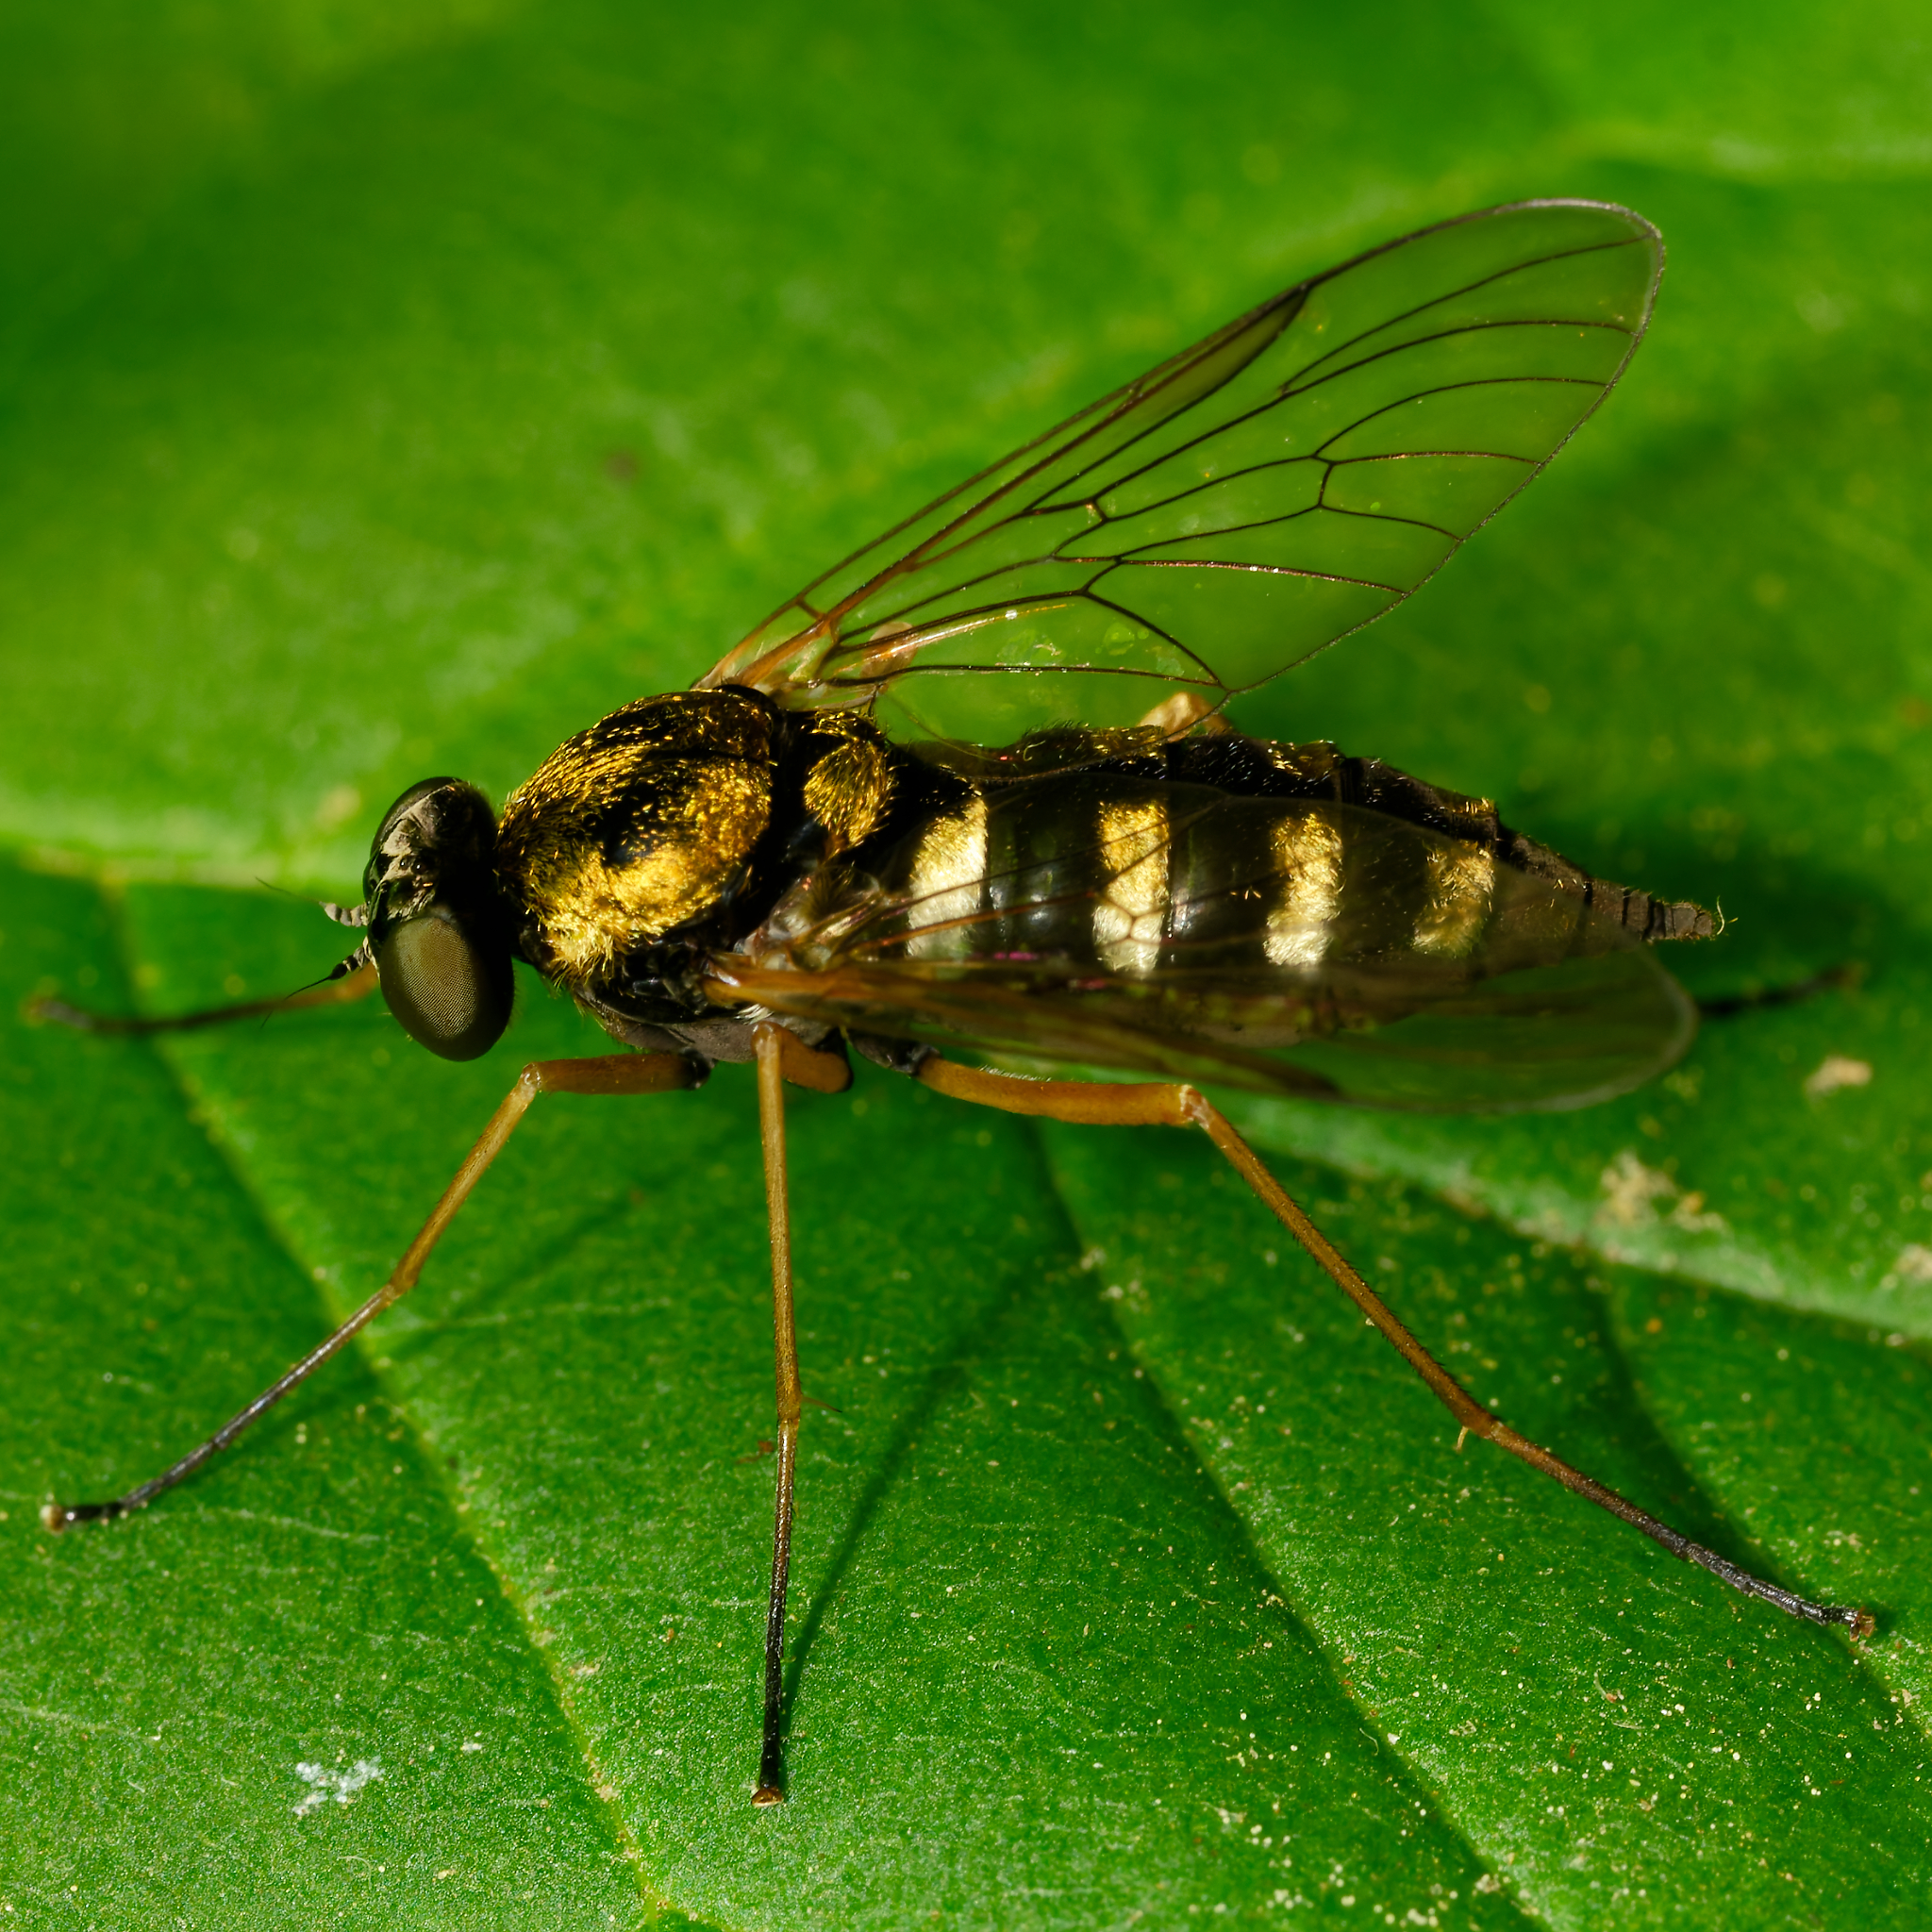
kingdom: Animalia
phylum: Arthropoda
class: Insecta
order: Diptera
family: Rhagionidae
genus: Chrysopilus
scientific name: Chrysopilus ornatus
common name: Ornate snipe fly
